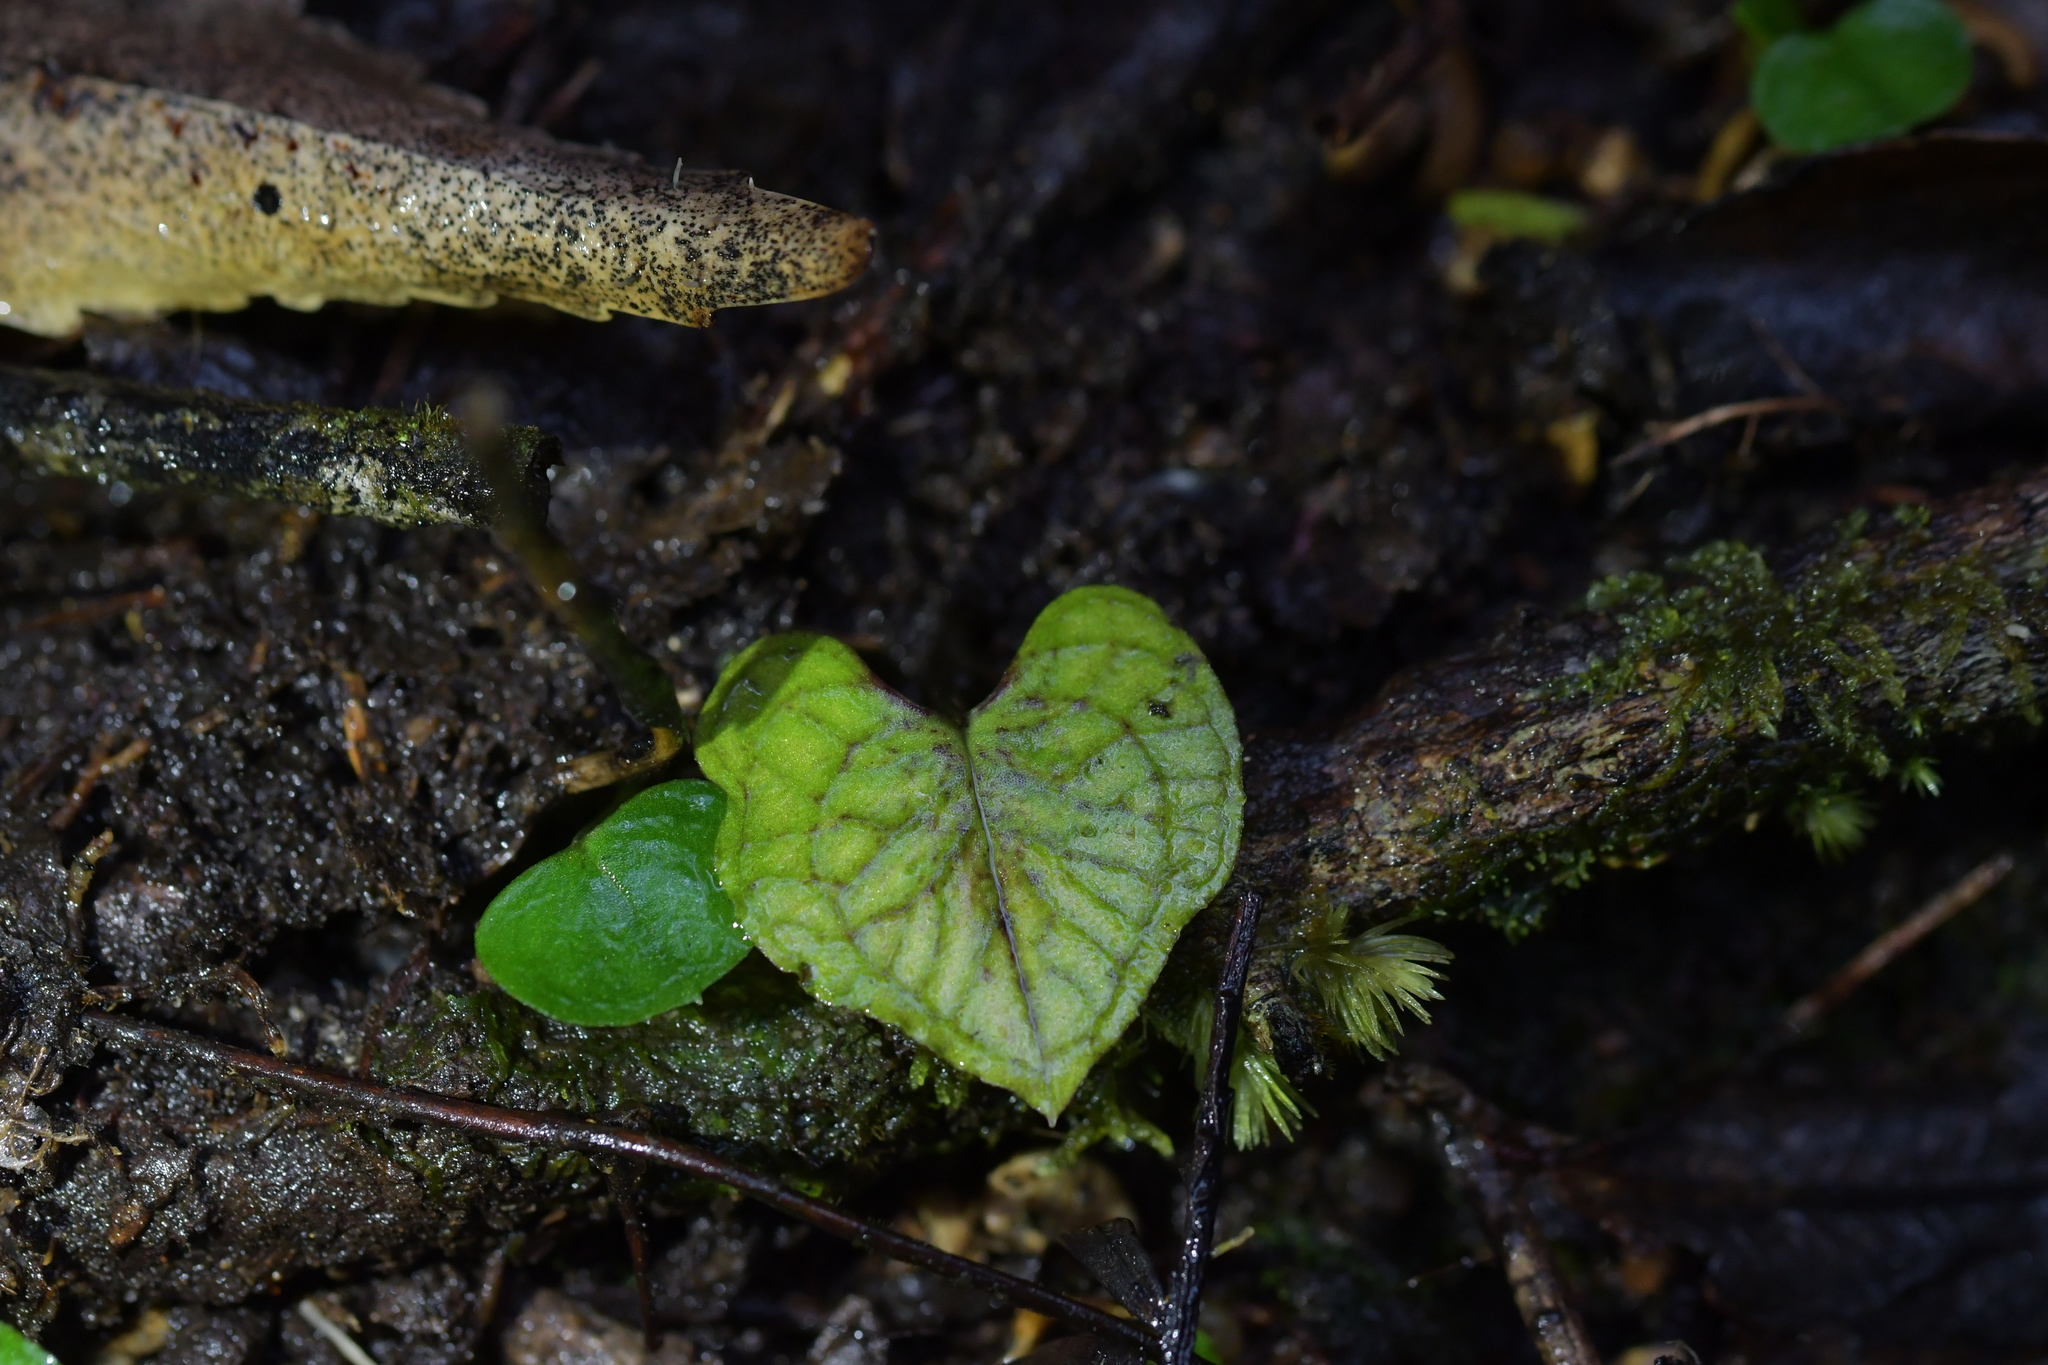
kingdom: Plantae
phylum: Tracheophyta
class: Liliopsida
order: Asparagales
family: Orchidaceae
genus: Corybas
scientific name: Corybas acuminatus
